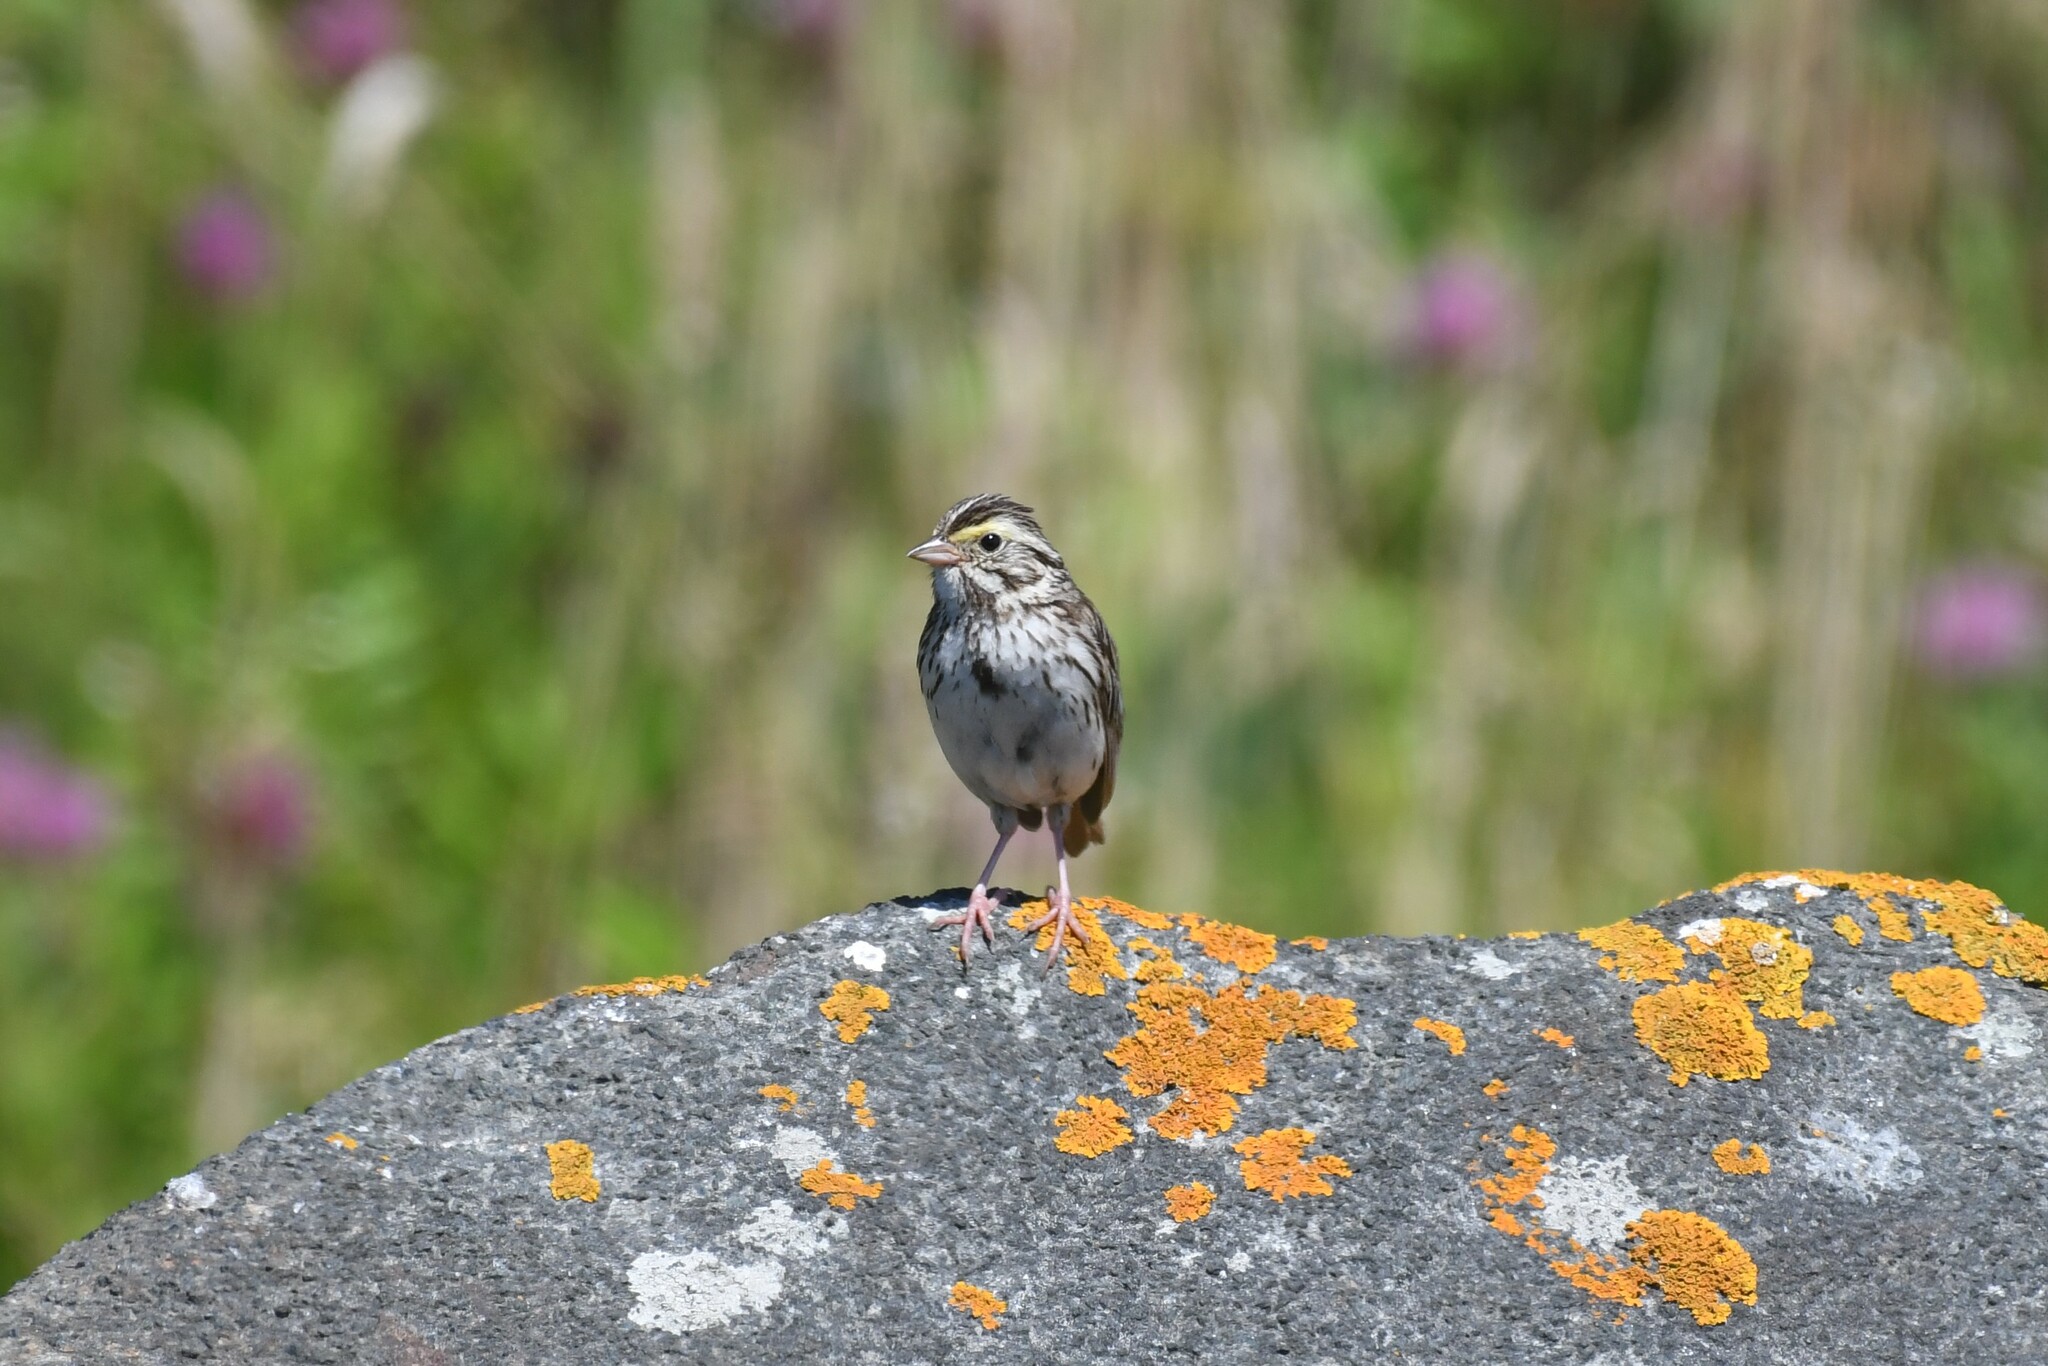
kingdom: Animalia
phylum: Chordata
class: Aves
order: Passeriformes
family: Passerellidae
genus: Passerculus
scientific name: Passerculus sandwichensis
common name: Savannah sparrow
